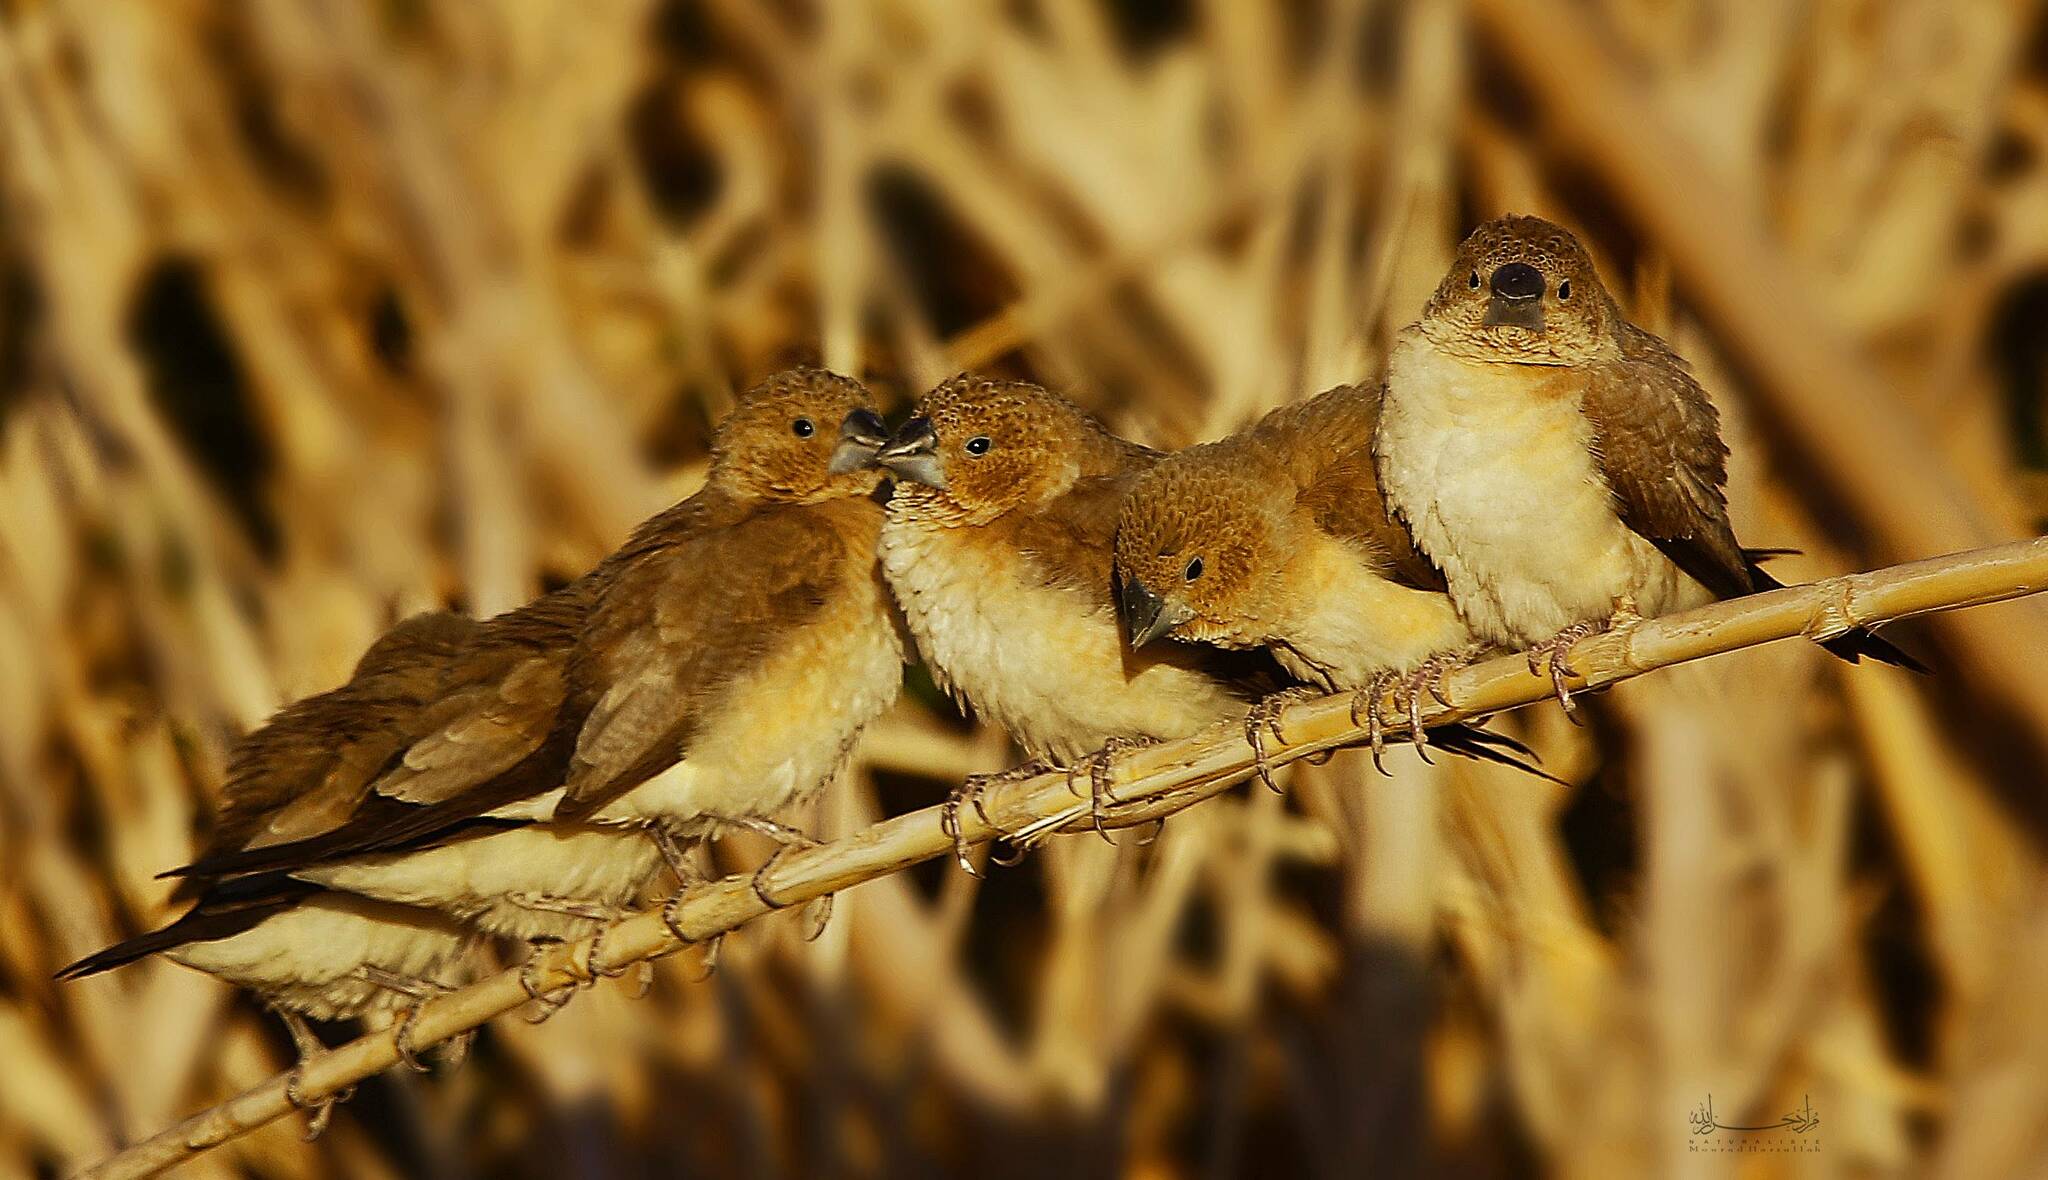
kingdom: Animalia
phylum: Chordata
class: Aves
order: Passeriformes
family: Estrildidae
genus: Euodice
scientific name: Euodice cantans
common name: African silverbill
